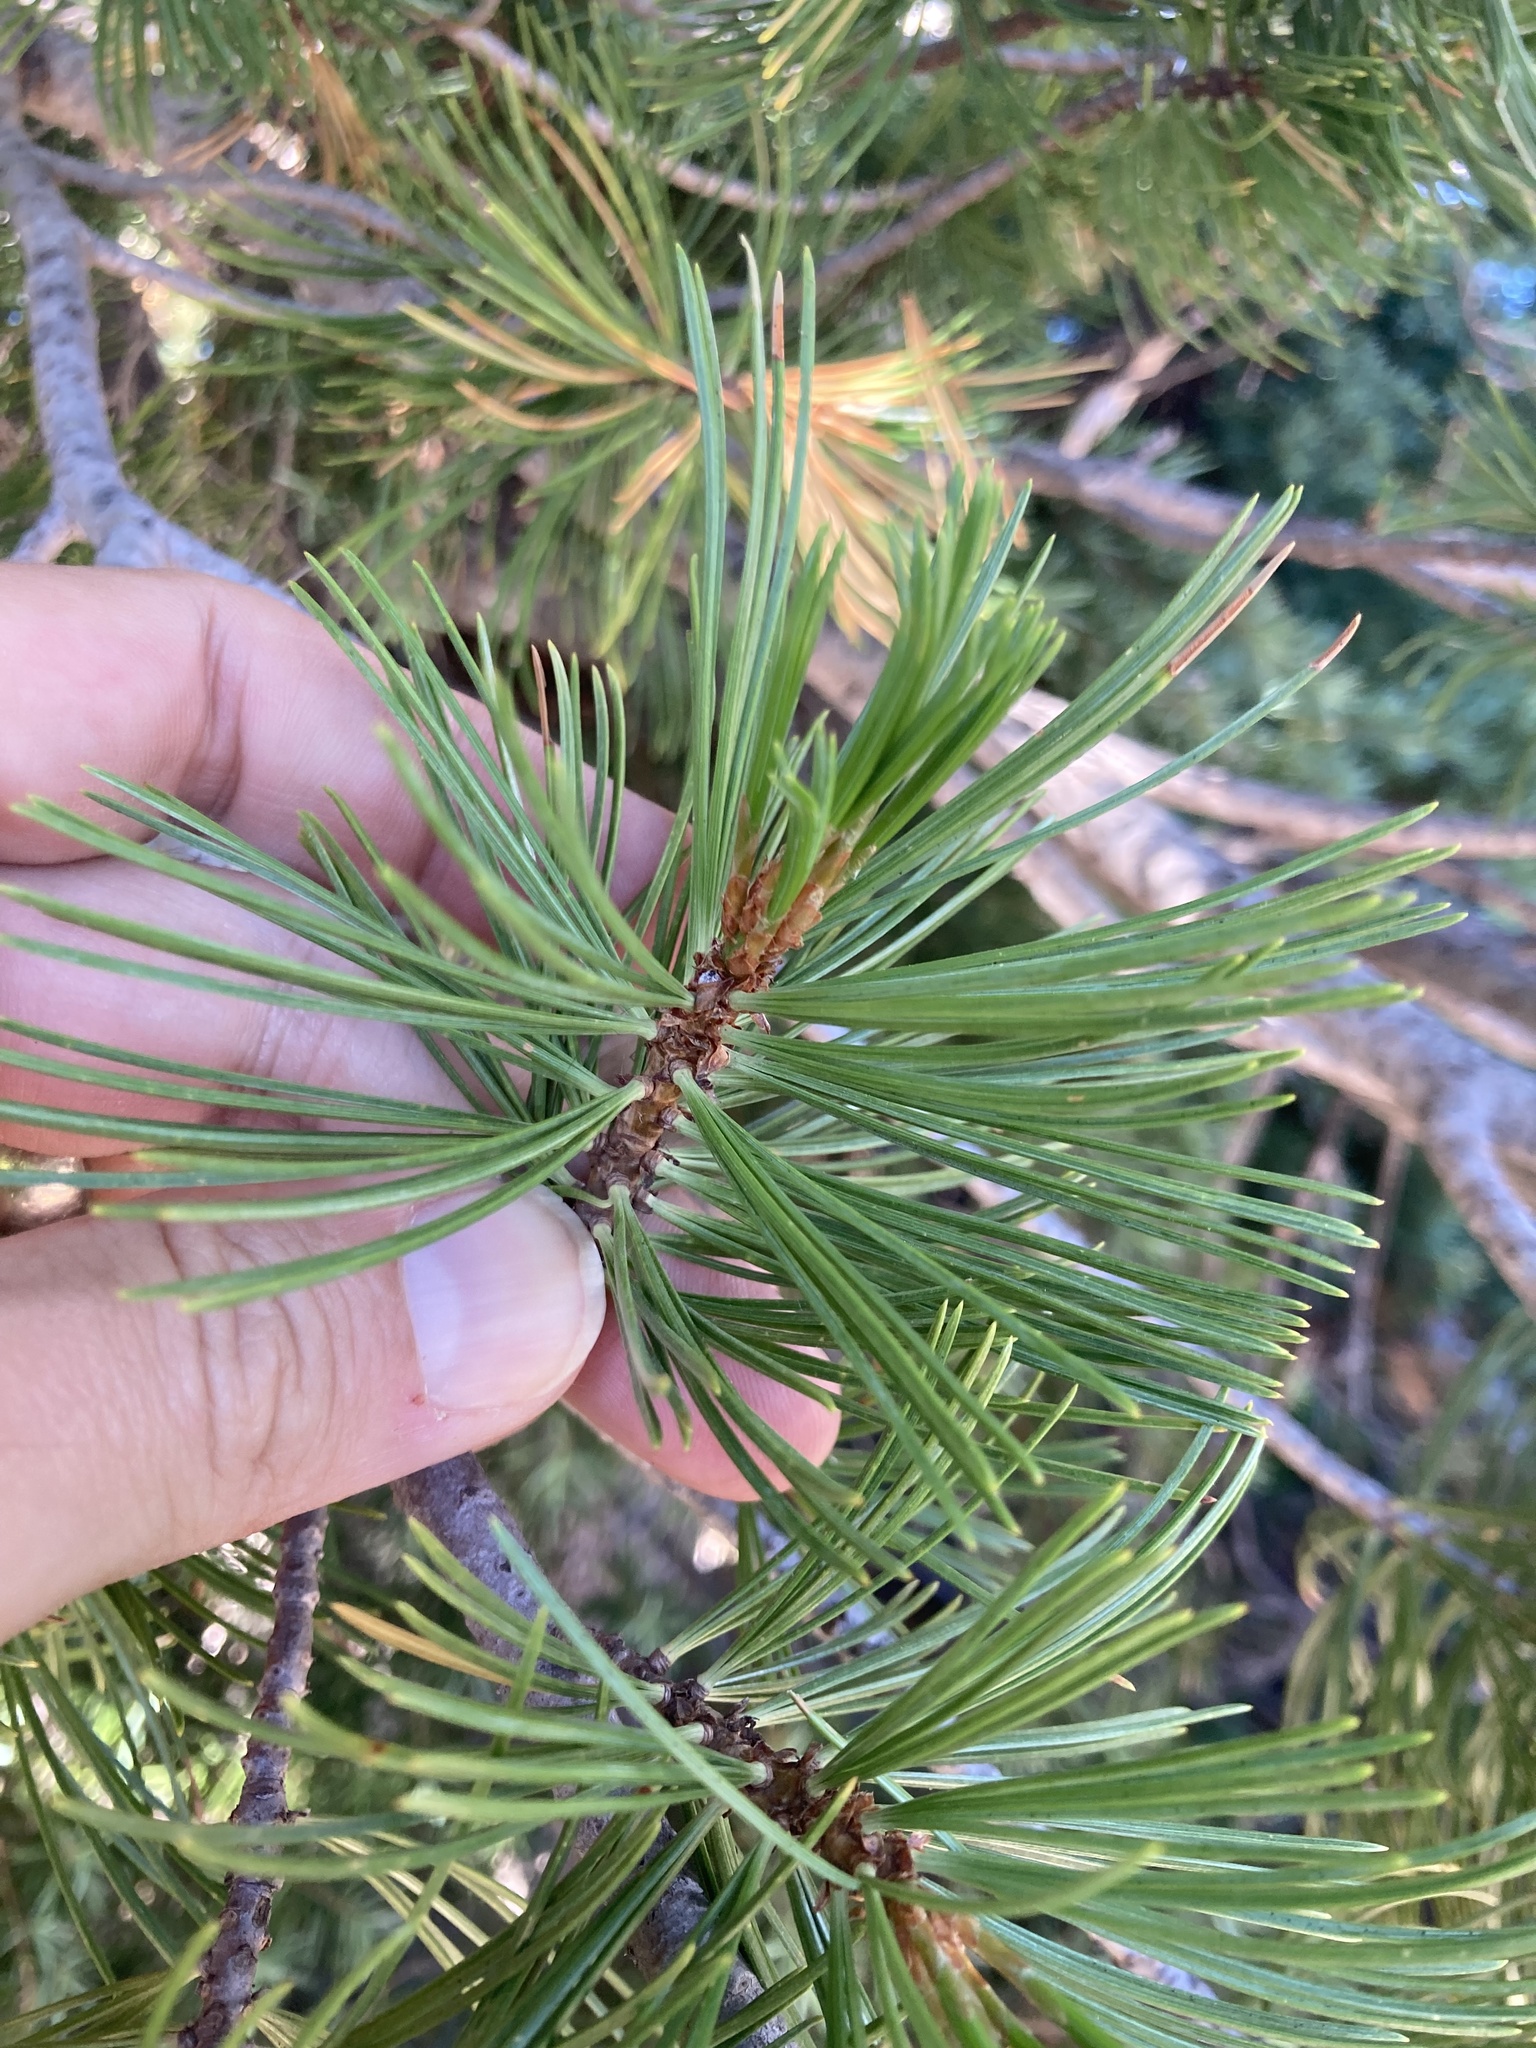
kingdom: Plantae
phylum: Tracheophyta
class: Pinopsida
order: Pinales
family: Pinaceae
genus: Pinus
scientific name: Pinus albicaulis
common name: Whitebark pine
